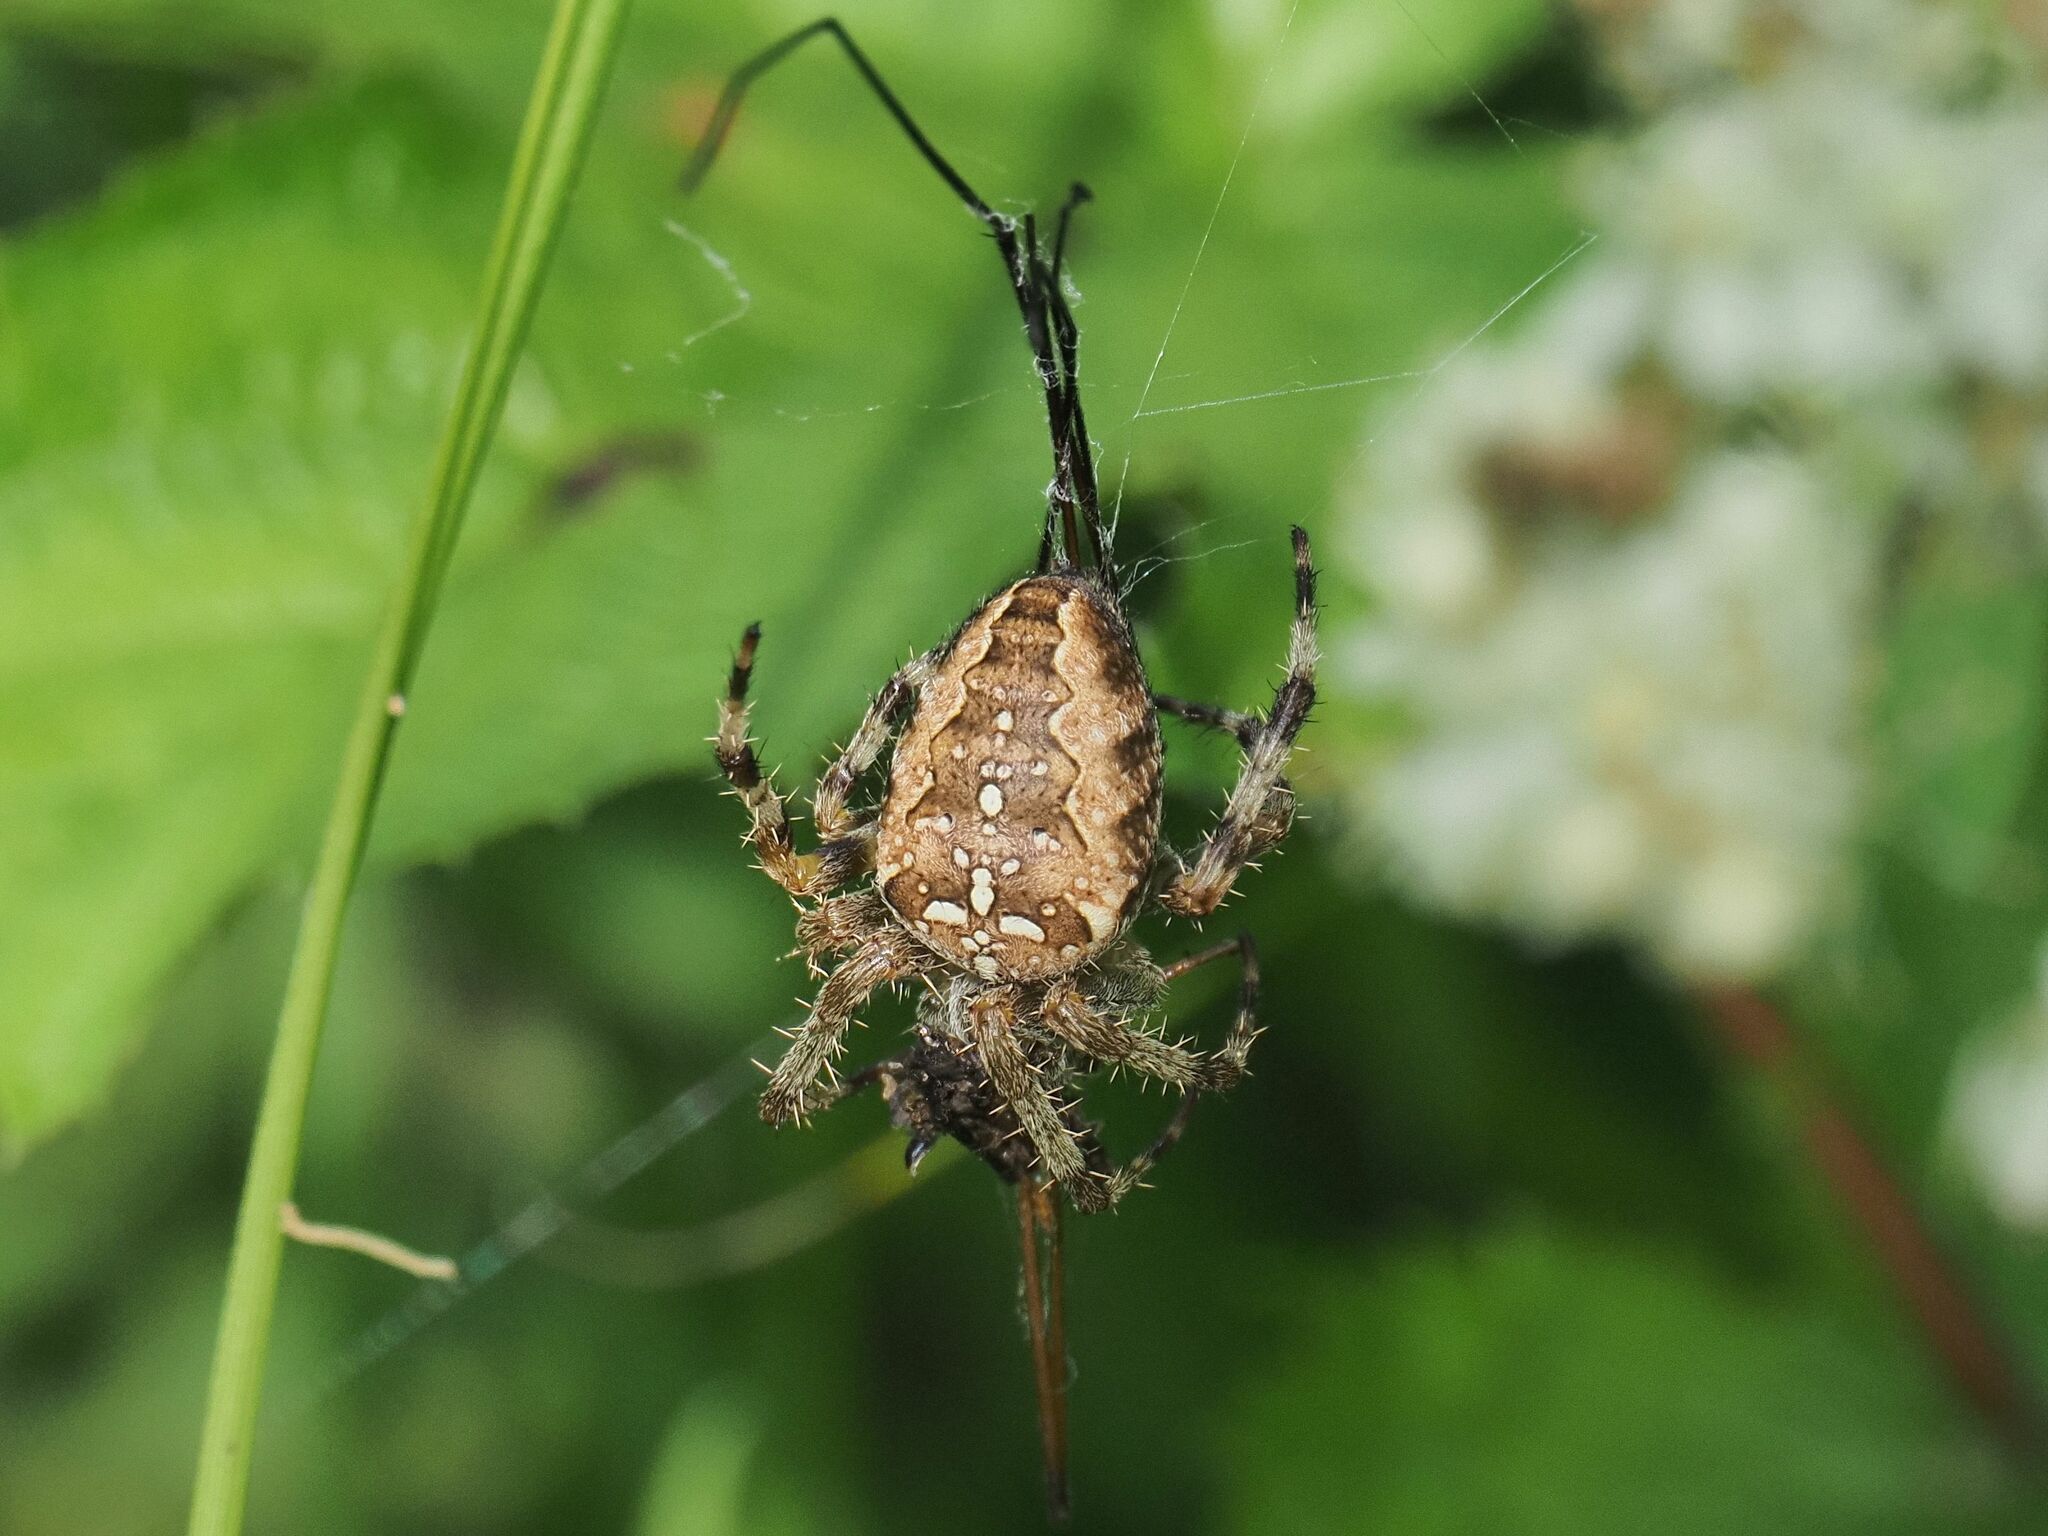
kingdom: Animalia
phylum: Arthropoda
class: Arachnida
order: Araneae
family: Araneidae
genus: Araneus
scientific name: Araneus diadematus
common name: Cross orbweaver
